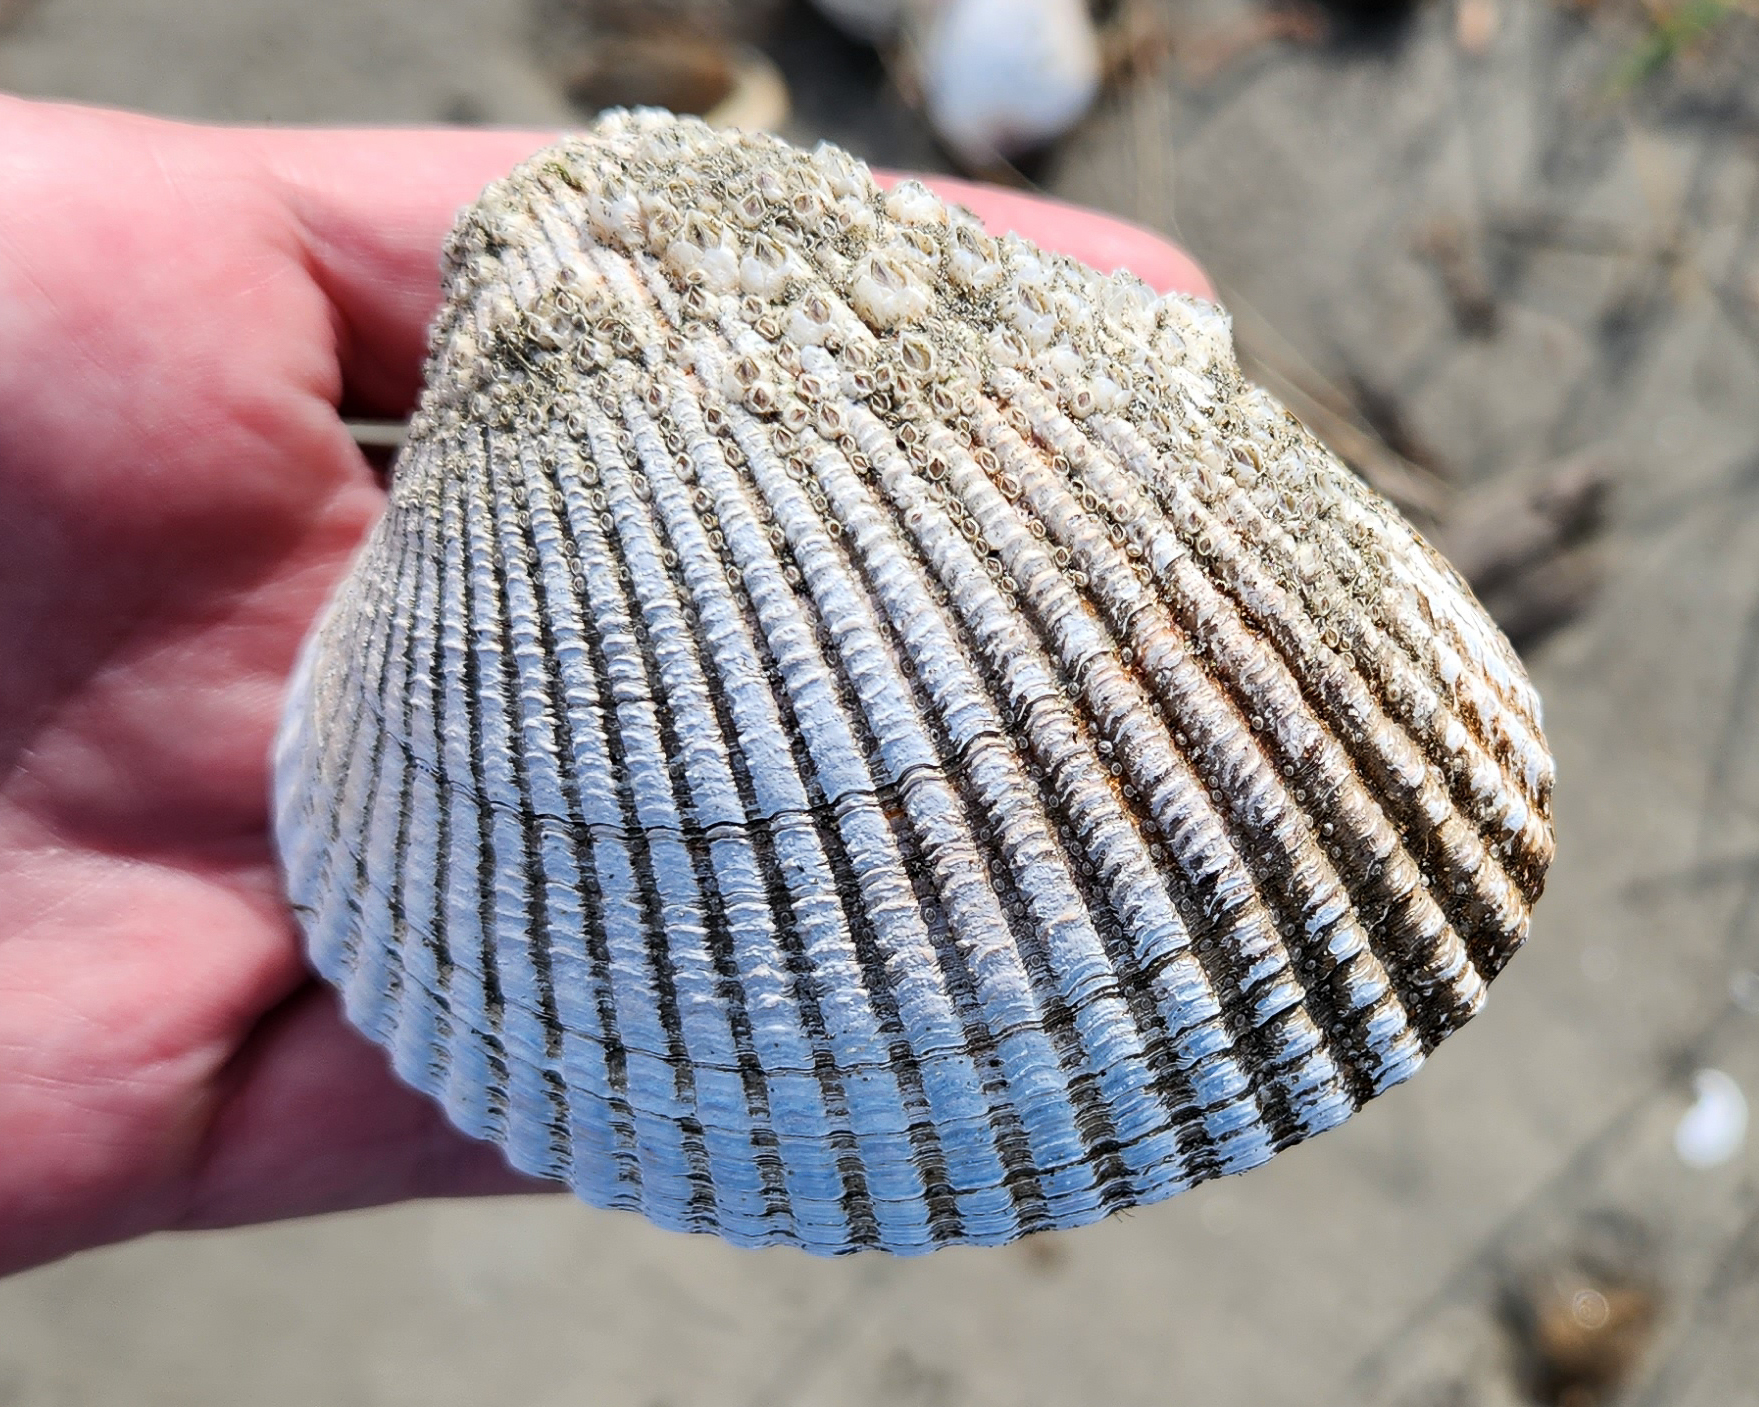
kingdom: Animalia
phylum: Mollusca
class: Bivalvia
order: Cardiida
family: Cardiidae
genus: Clinocardium
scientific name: Clinocardium nuttallii
